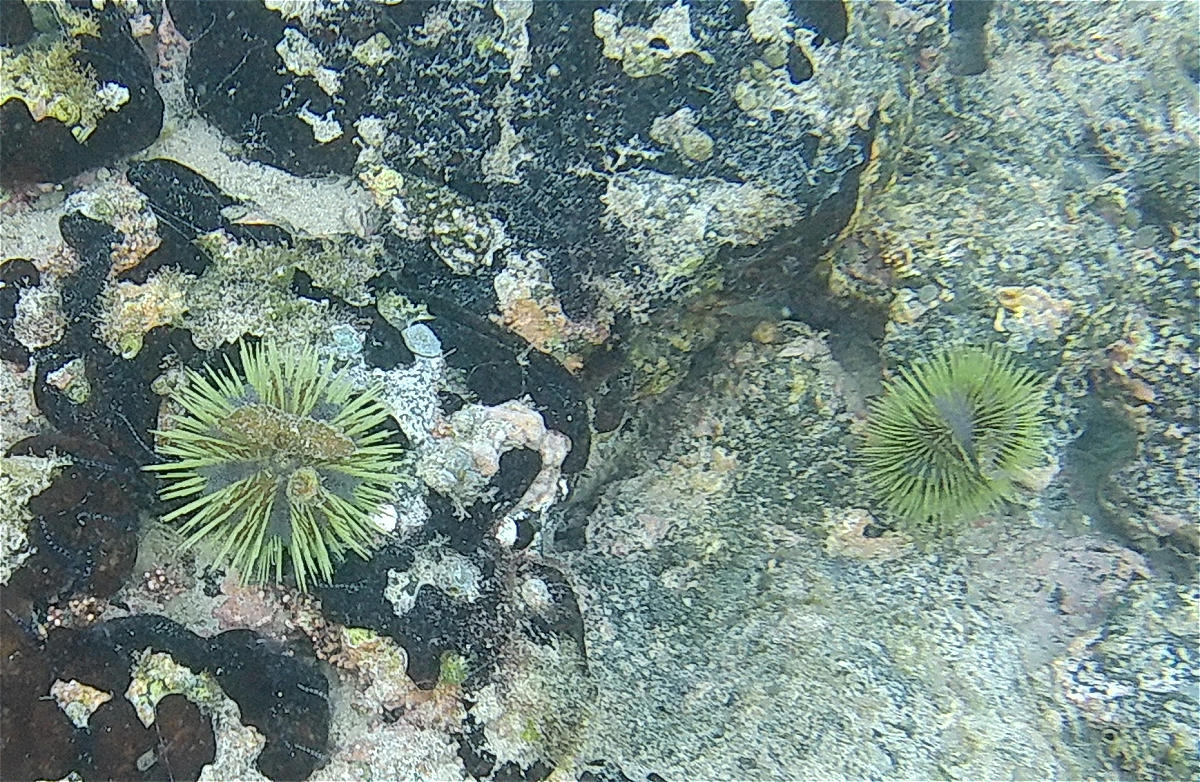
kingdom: Animalia
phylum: Echinodermata
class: Echinoidea
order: Camarodonta
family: Toxopneustidae
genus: Lytechinus
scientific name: Lytechinus semituberculatus
